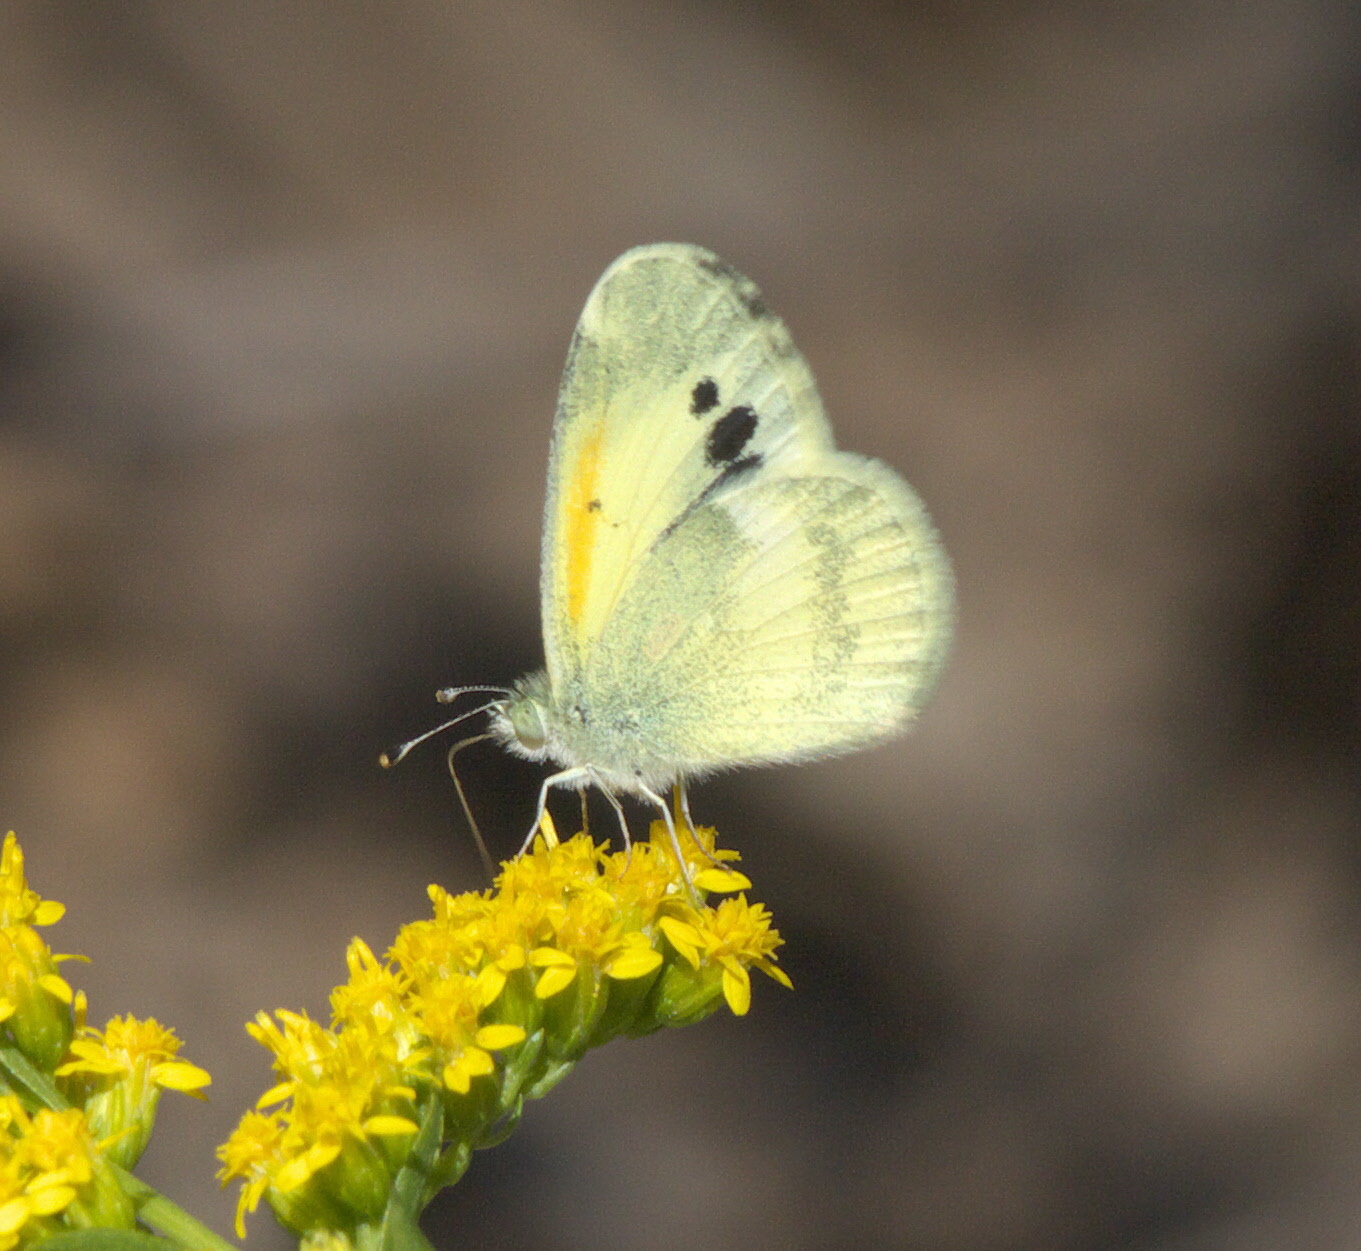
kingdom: Animalia
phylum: Arthropoda
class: Insecta
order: Lepidoptera
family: Pieridae
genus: Nathalis
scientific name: Nathalis iole
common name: Dainty sulphur
